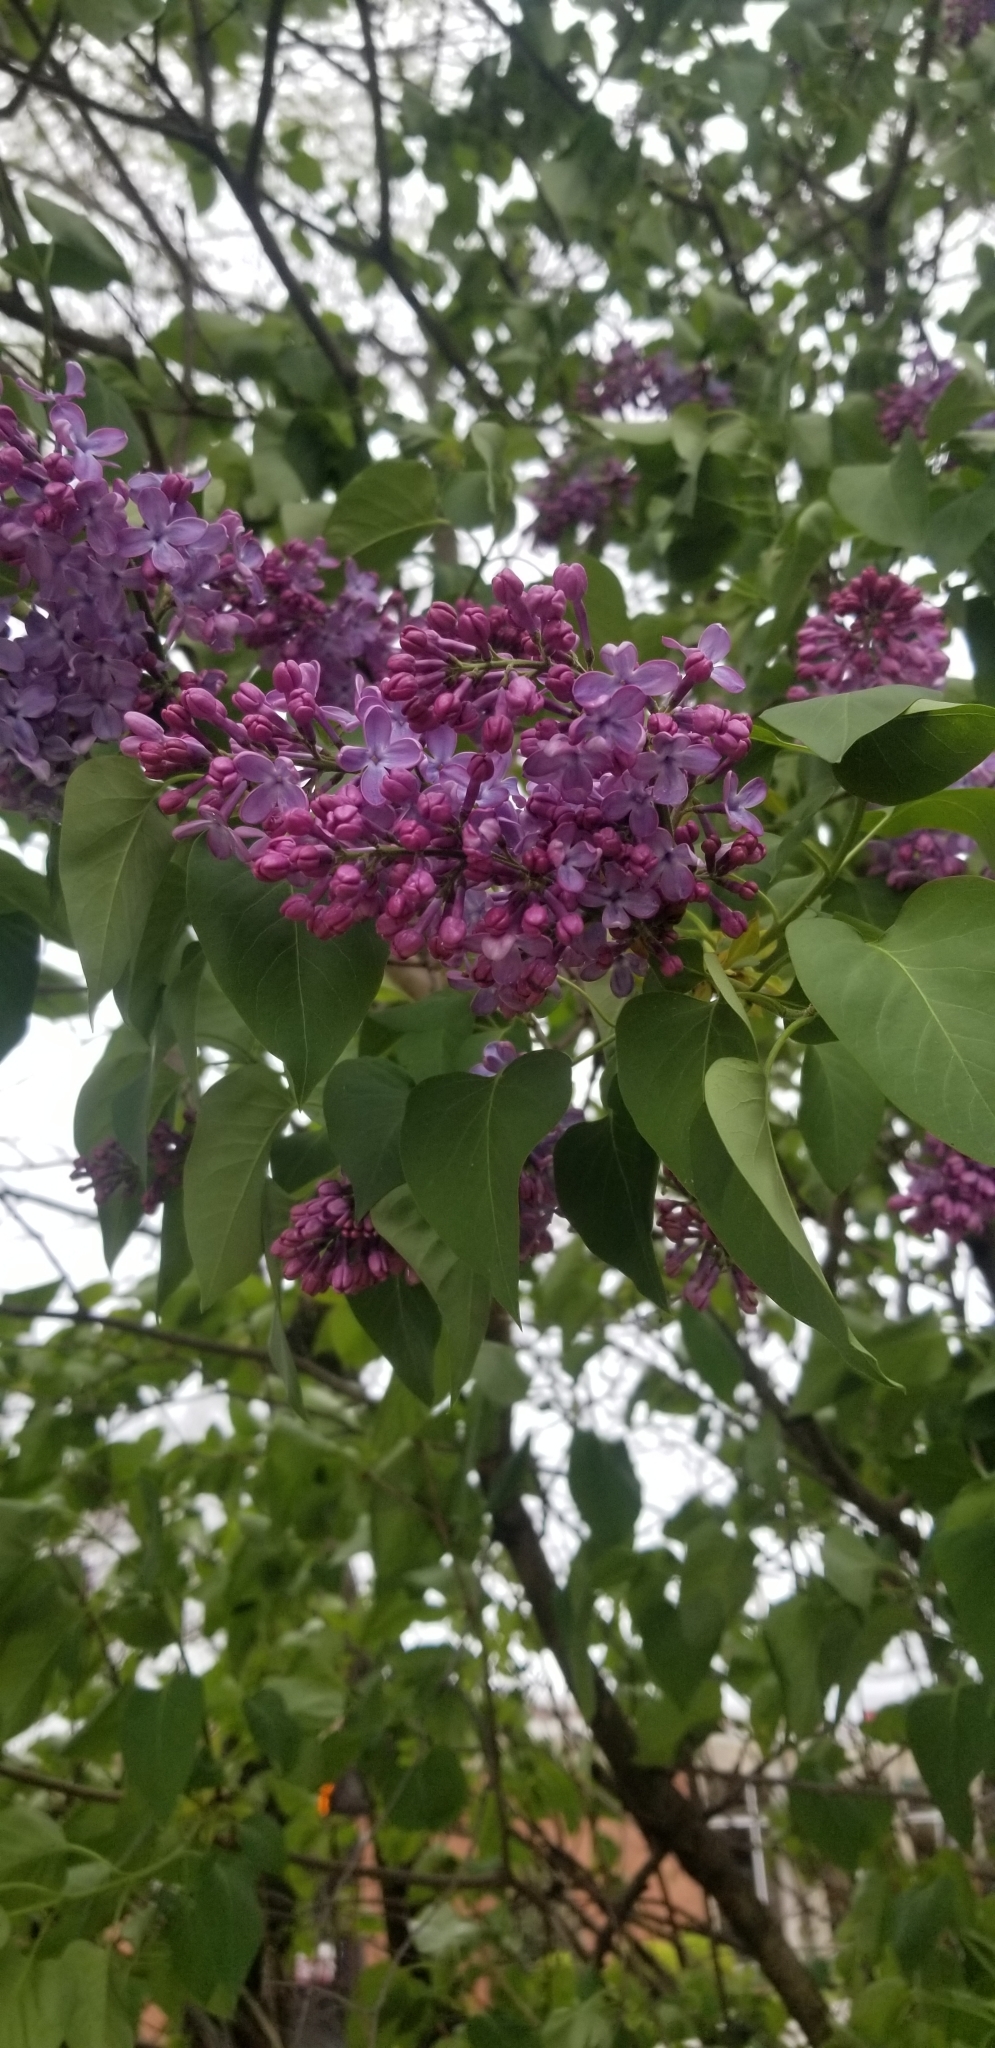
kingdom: Plantae
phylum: Tracheophyta
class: Magnoliopsida
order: Lamiales
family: Oleaceae
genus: Syringa
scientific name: Syringa vulgaris
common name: Common lilac
